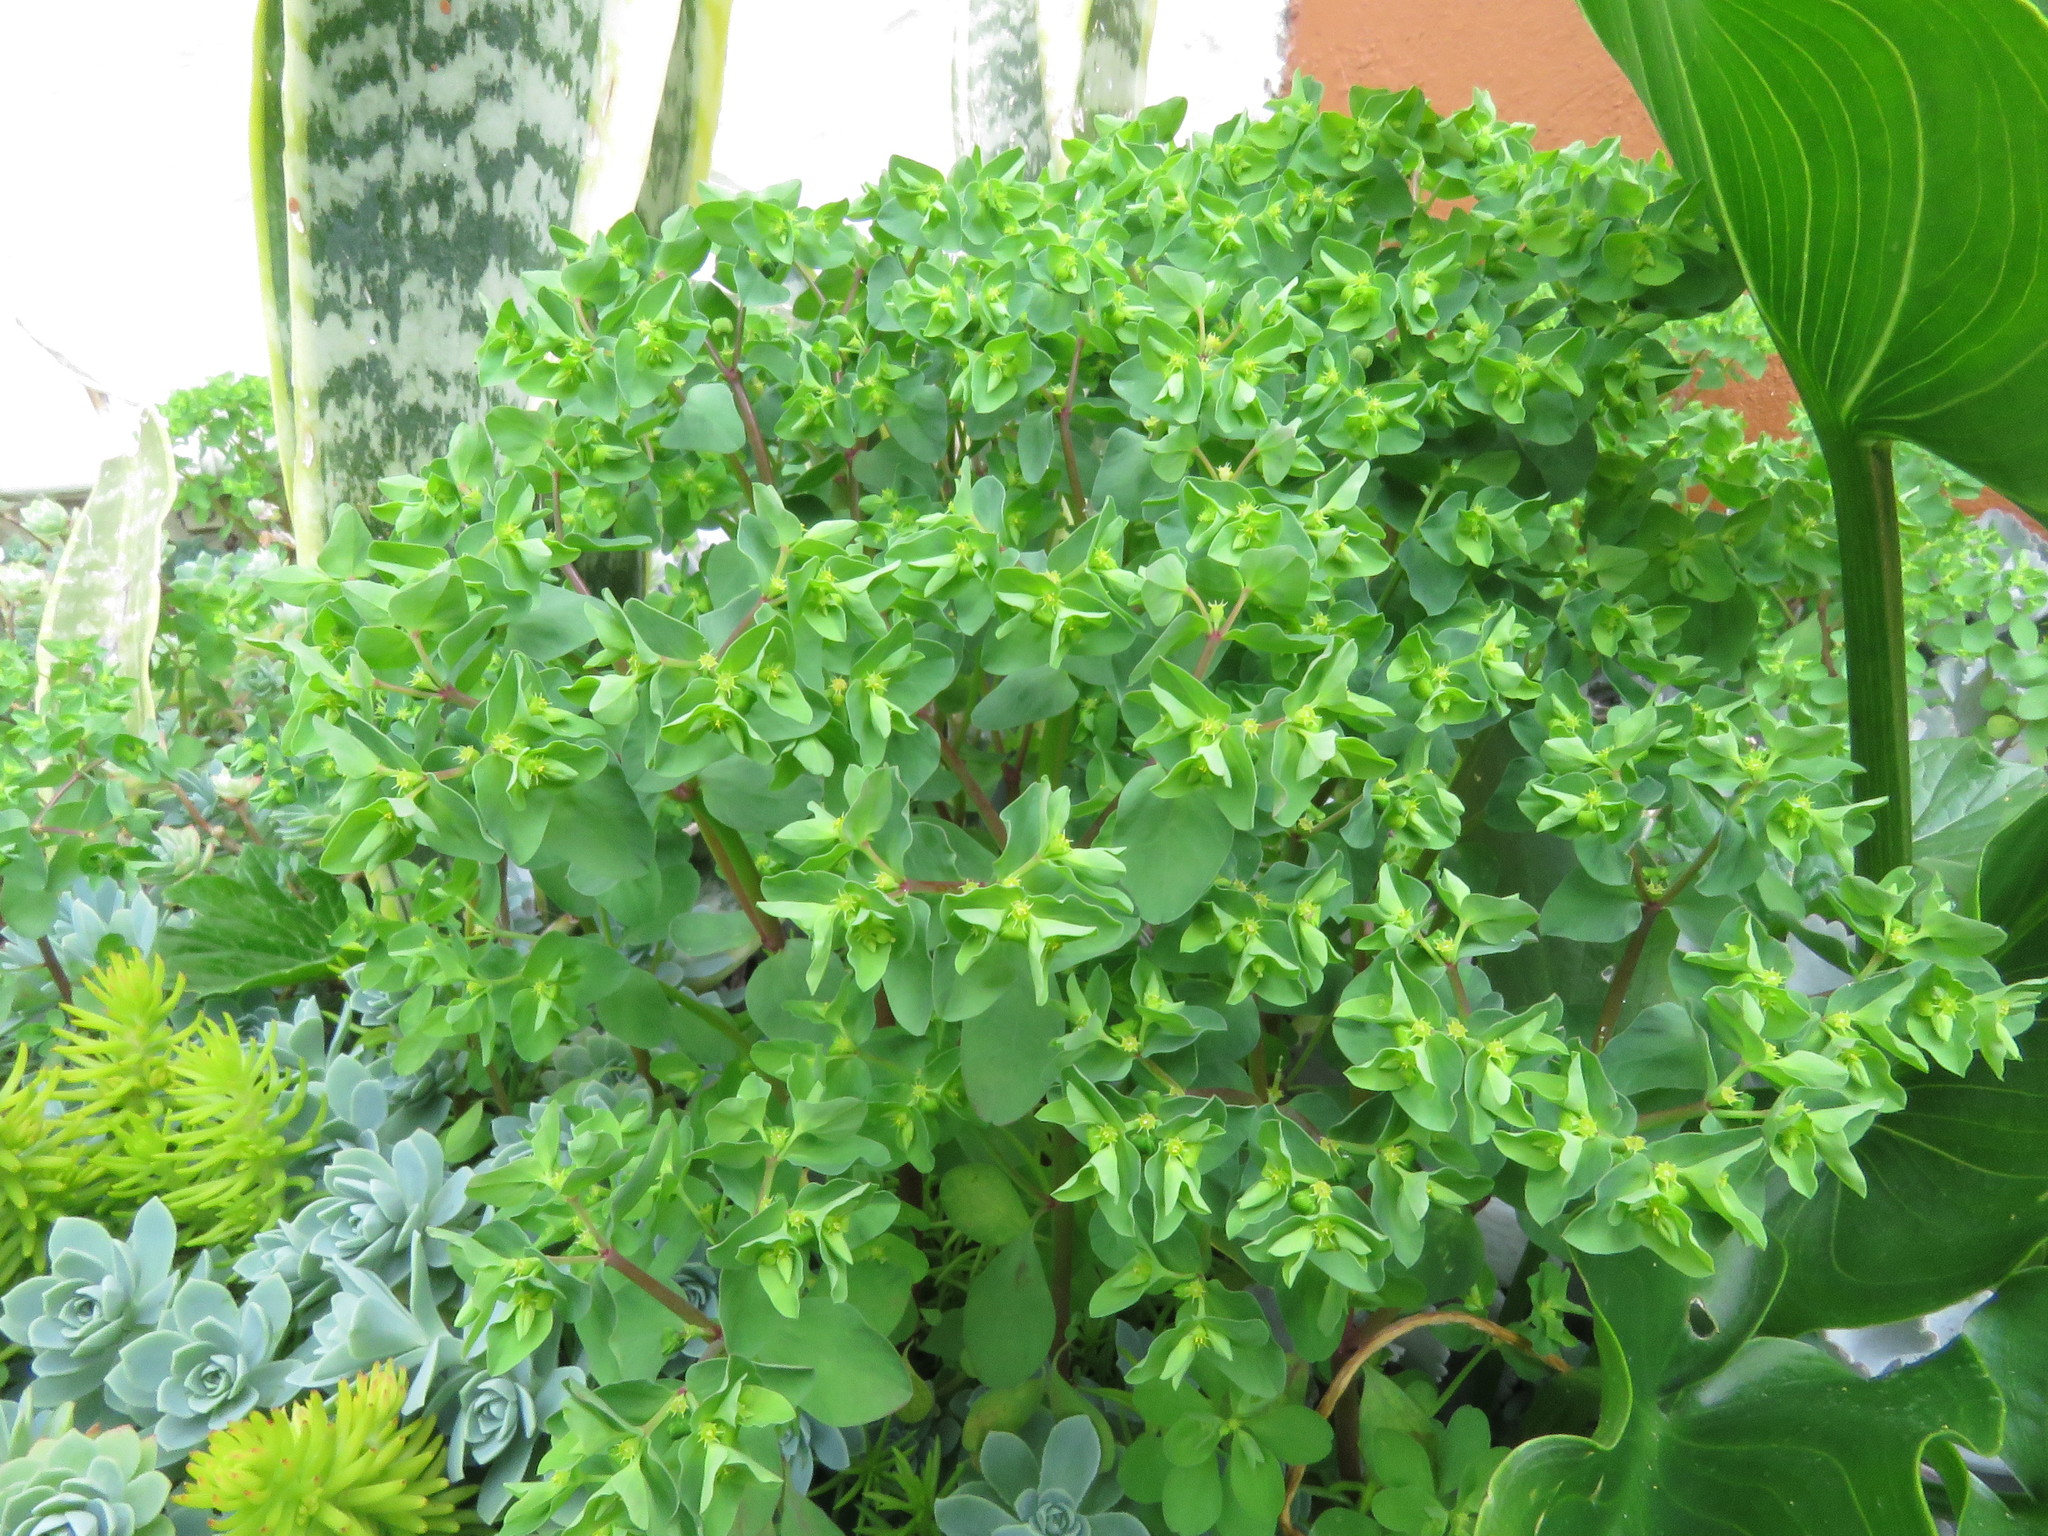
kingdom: Plantae
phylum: Tracheophyta
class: Magnoliopsida
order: Malpighiales
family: Euphorbiaceae
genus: Euphorbia
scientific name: Euphorbia peplus
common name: Petty spurge
